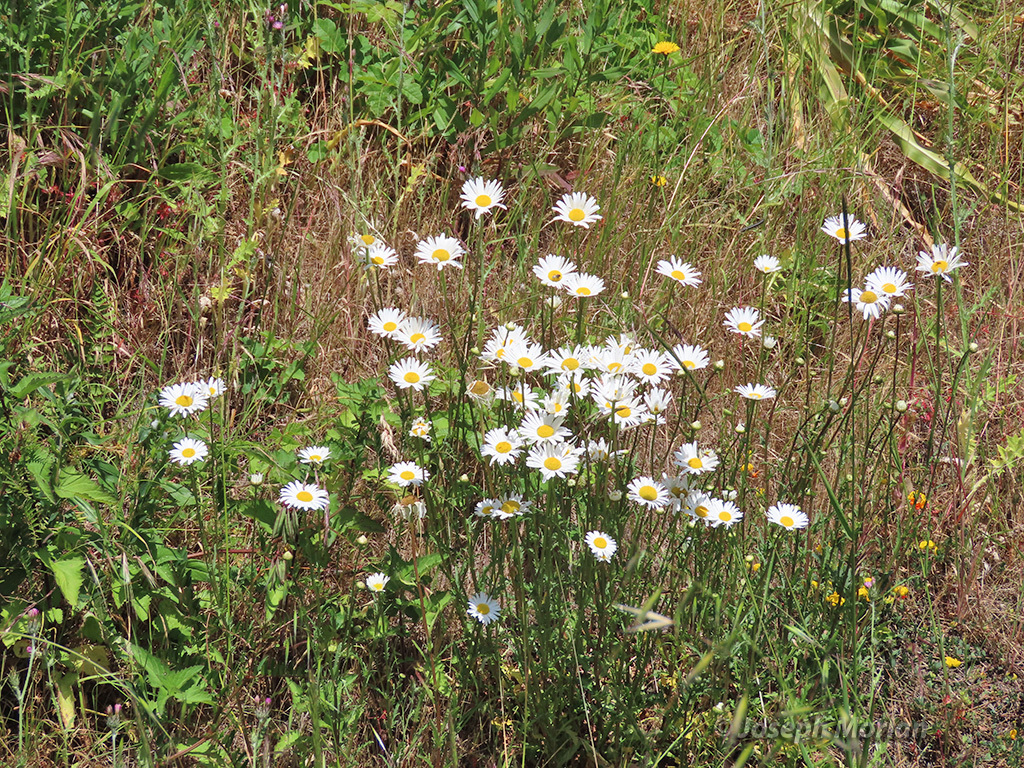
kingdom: Plantae
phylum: Tracheophyta
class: Magnoliopsida
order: Asterales
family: Asteraceae
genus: Leucanthemum
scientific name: Leucanthemum vulgare
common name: Oxeye daisy
